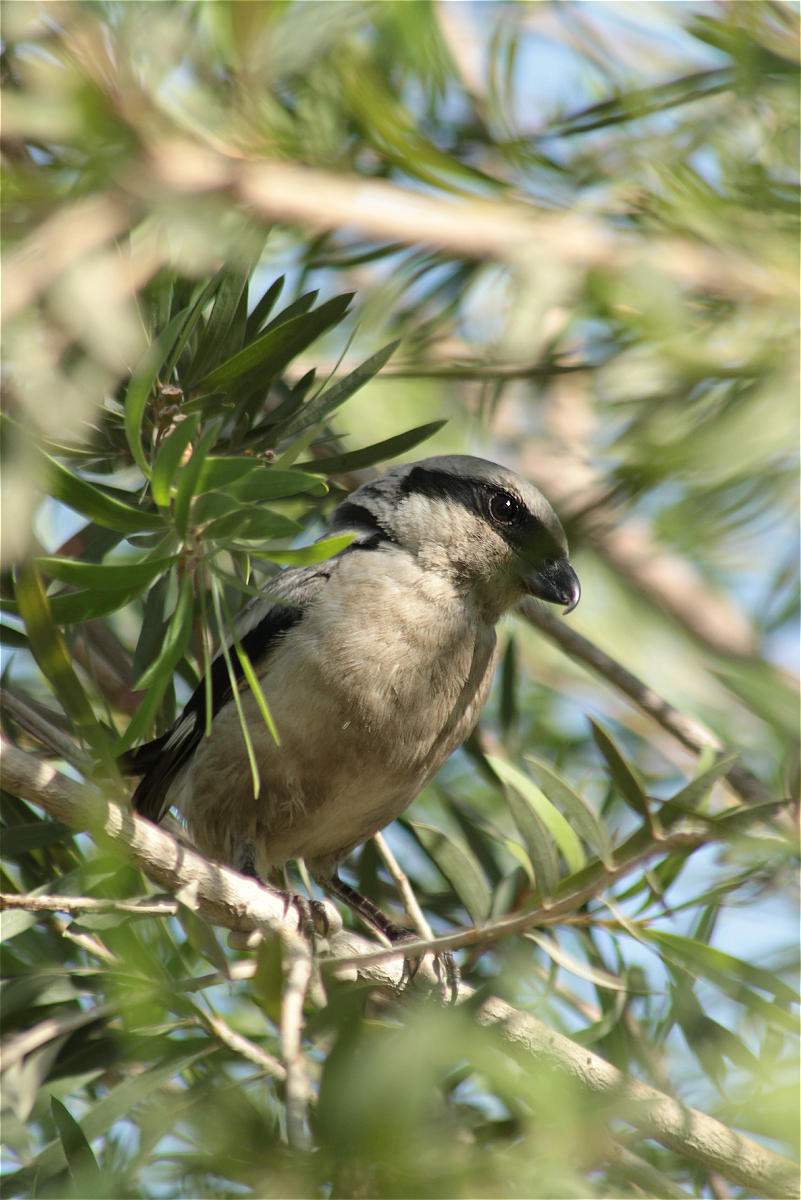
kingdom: Animalia
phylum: Chordata
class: Aves
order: Passeriformes
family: Laniidae
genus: Lanius
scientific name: Lanius excubitor
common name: Great grey shrike
